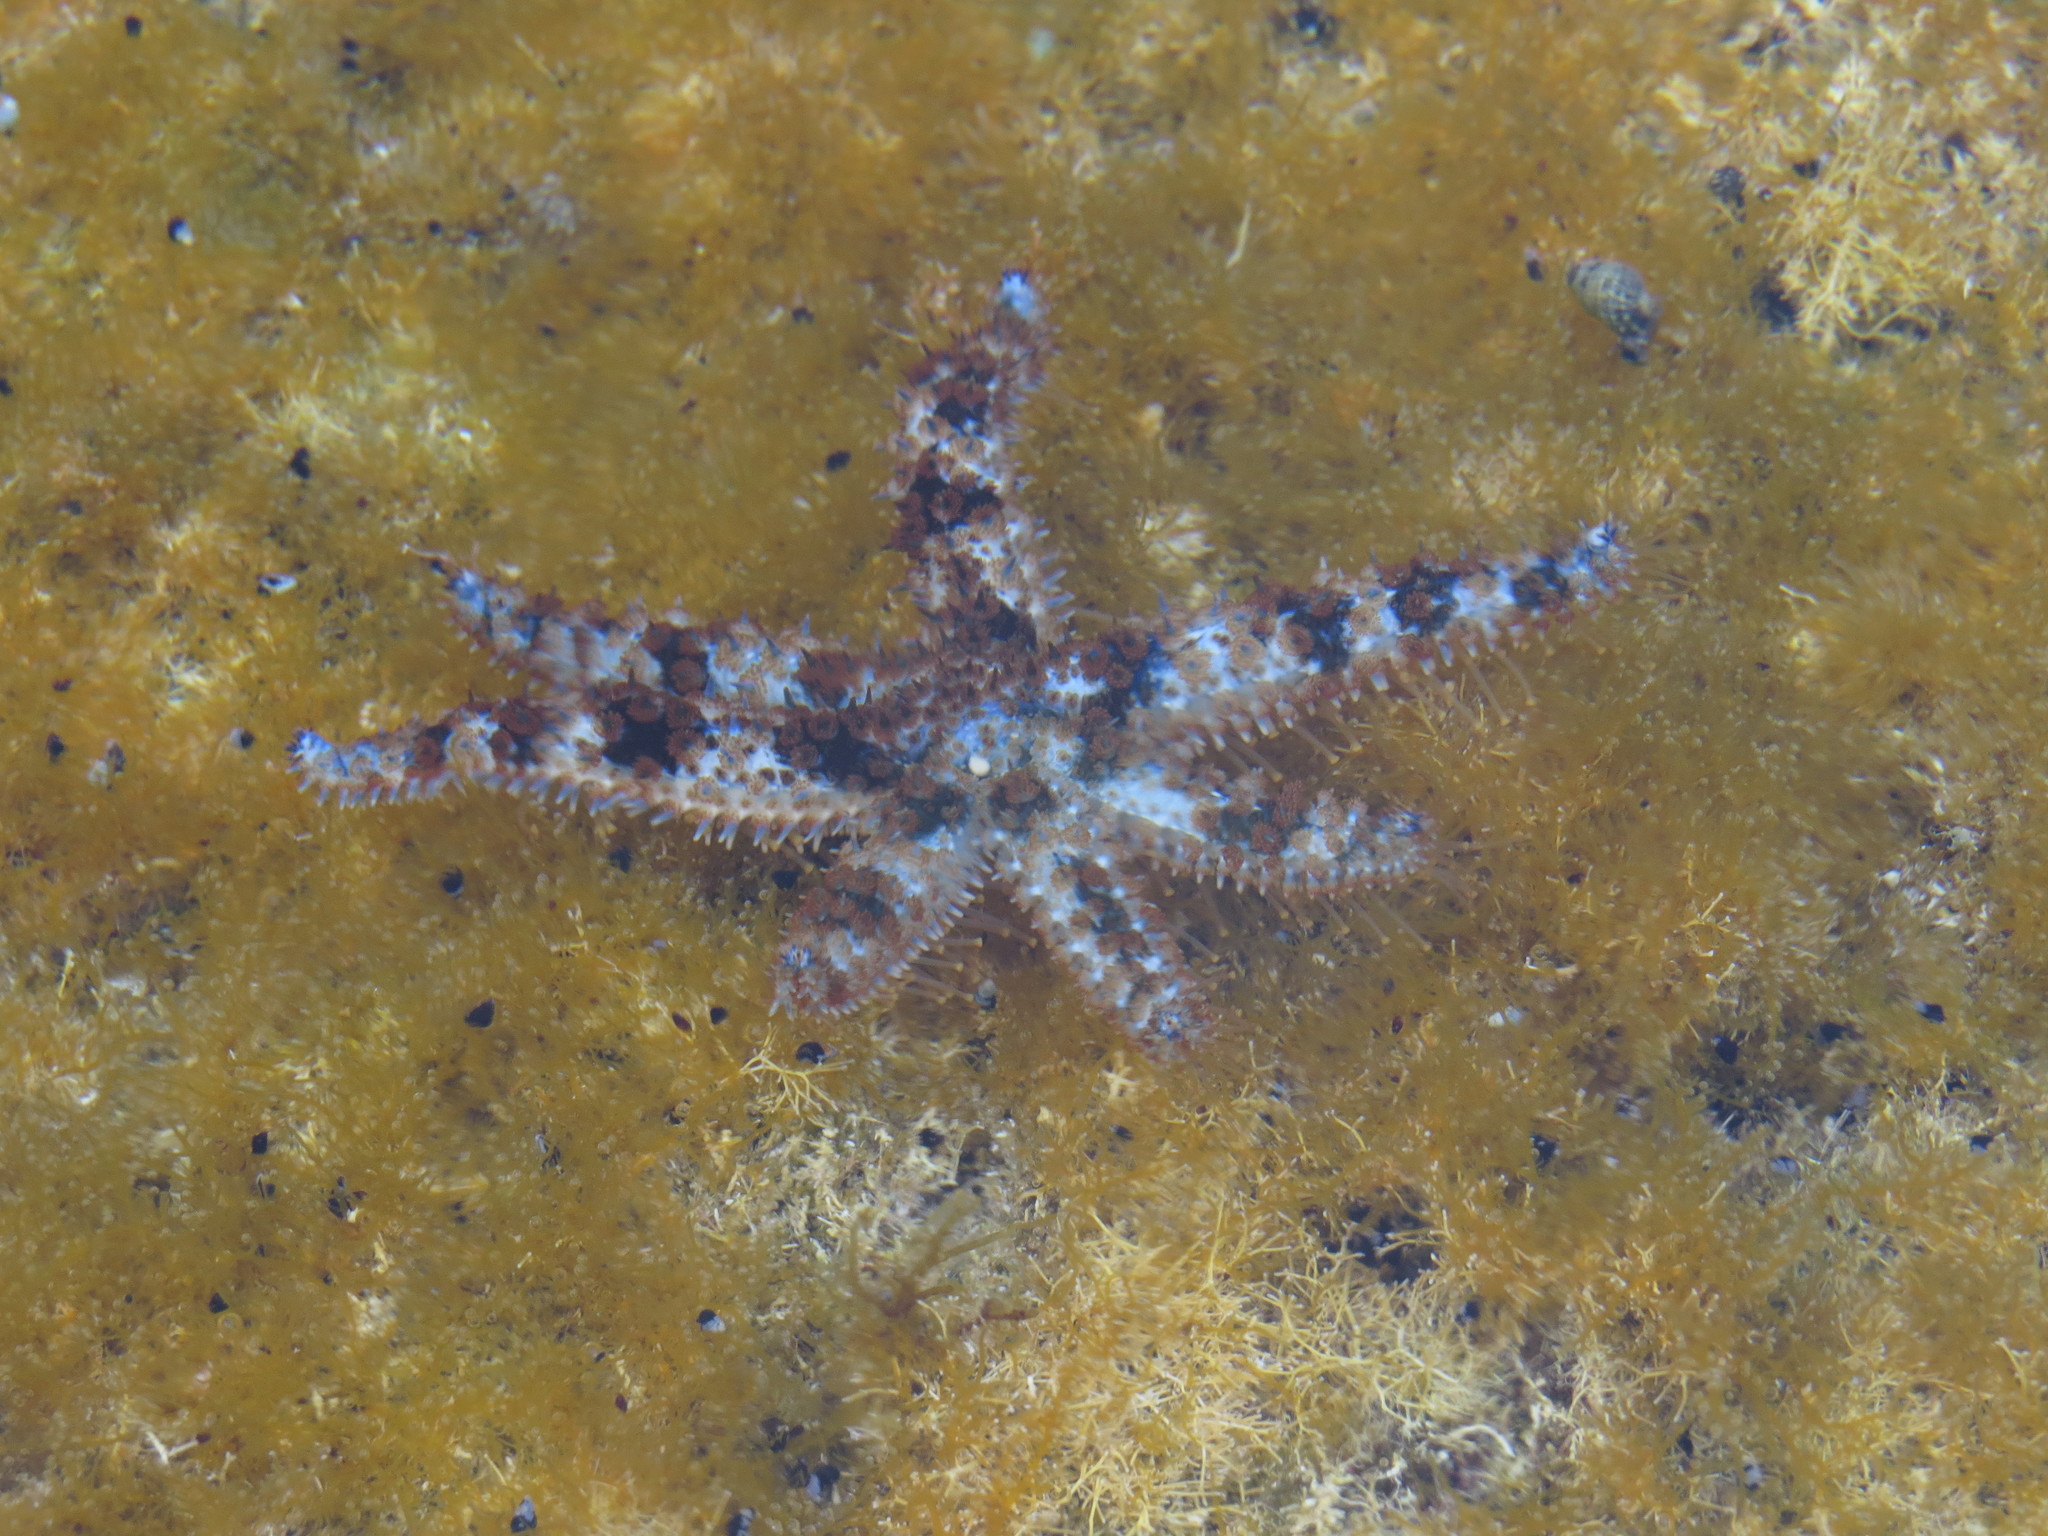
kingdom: Animalia
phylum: Echinodermata
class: Asteroidea
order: Forcipulatida
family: Asteriidae
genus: Coscinasterias
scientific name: Coscinasterias tenuispina
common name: Blue spiny starfish
